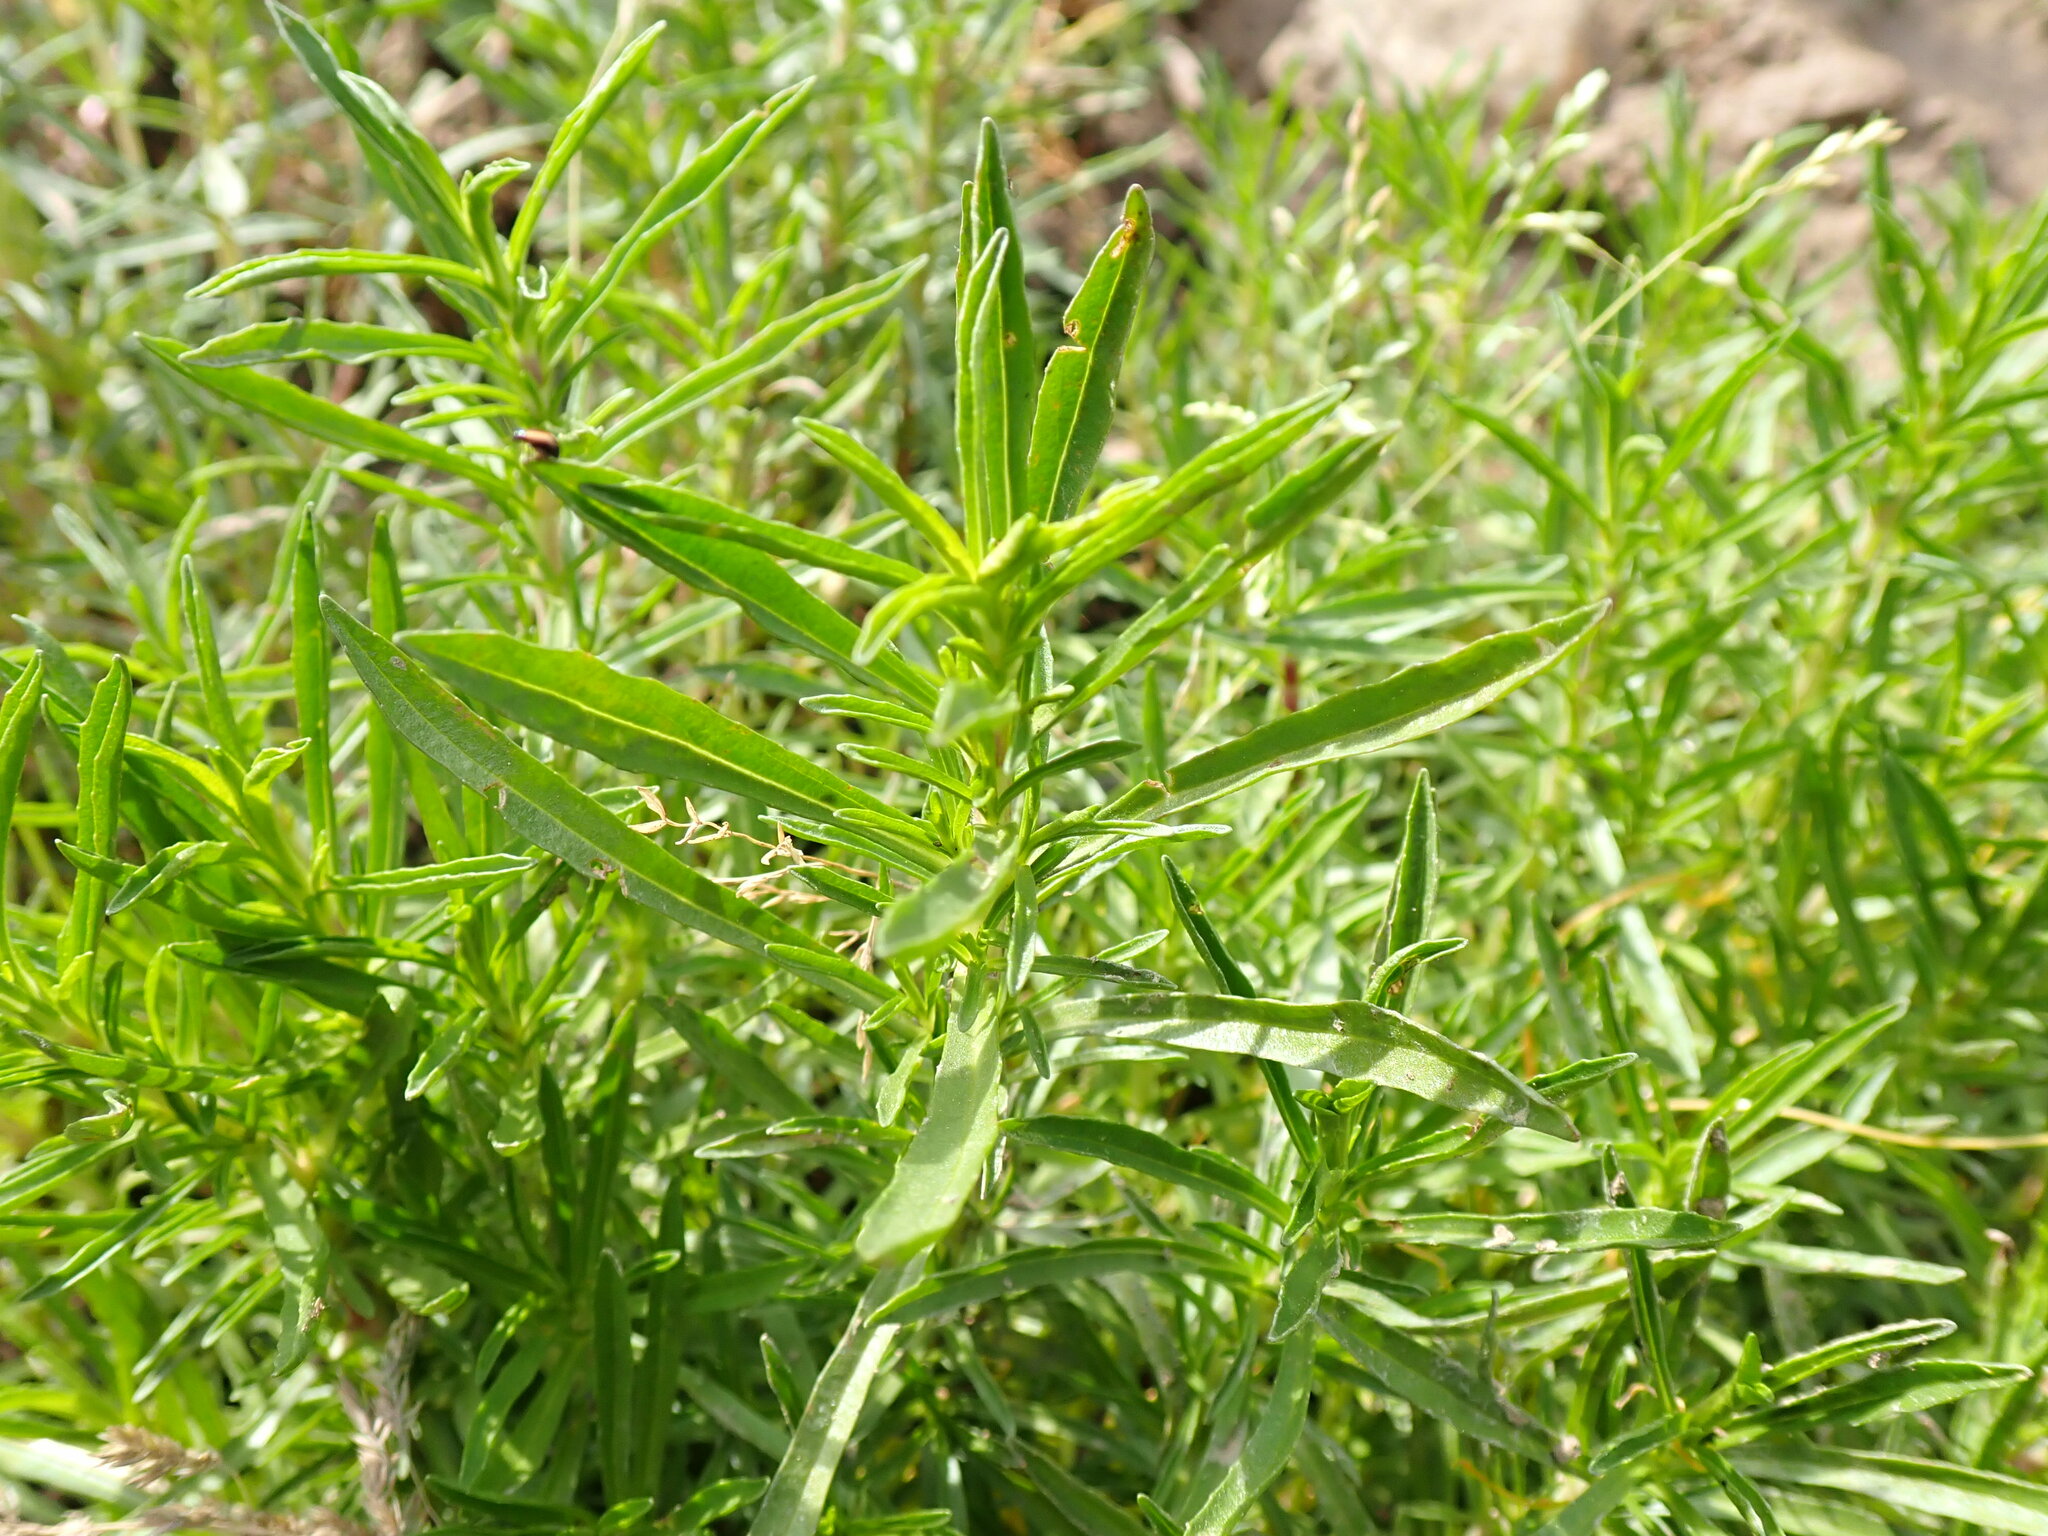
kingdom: Plantae
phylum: Tracheophyta
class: Magnoliopsida
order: Lamiales
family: Lamiaceae
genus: Mentha
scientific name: Mentha cervina
